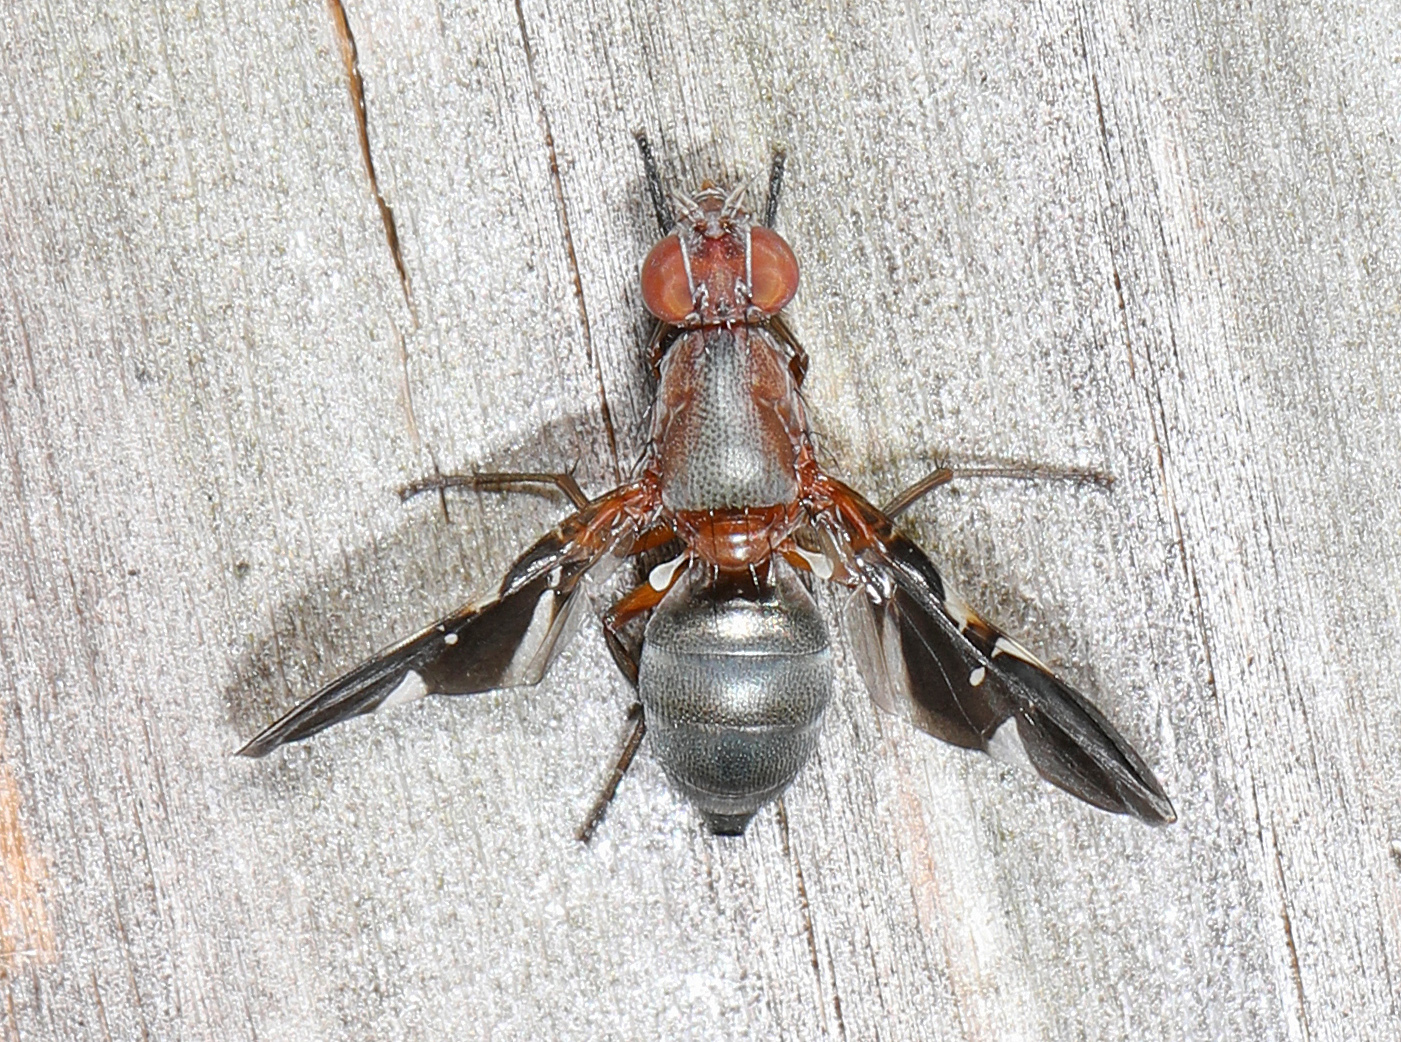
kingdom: Animalia
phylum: Arthropoda
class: Insecta
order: Diptera
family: Ulidiidae
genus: Delphinia
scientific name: Delphinia picta
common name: Common picture-winged fly
